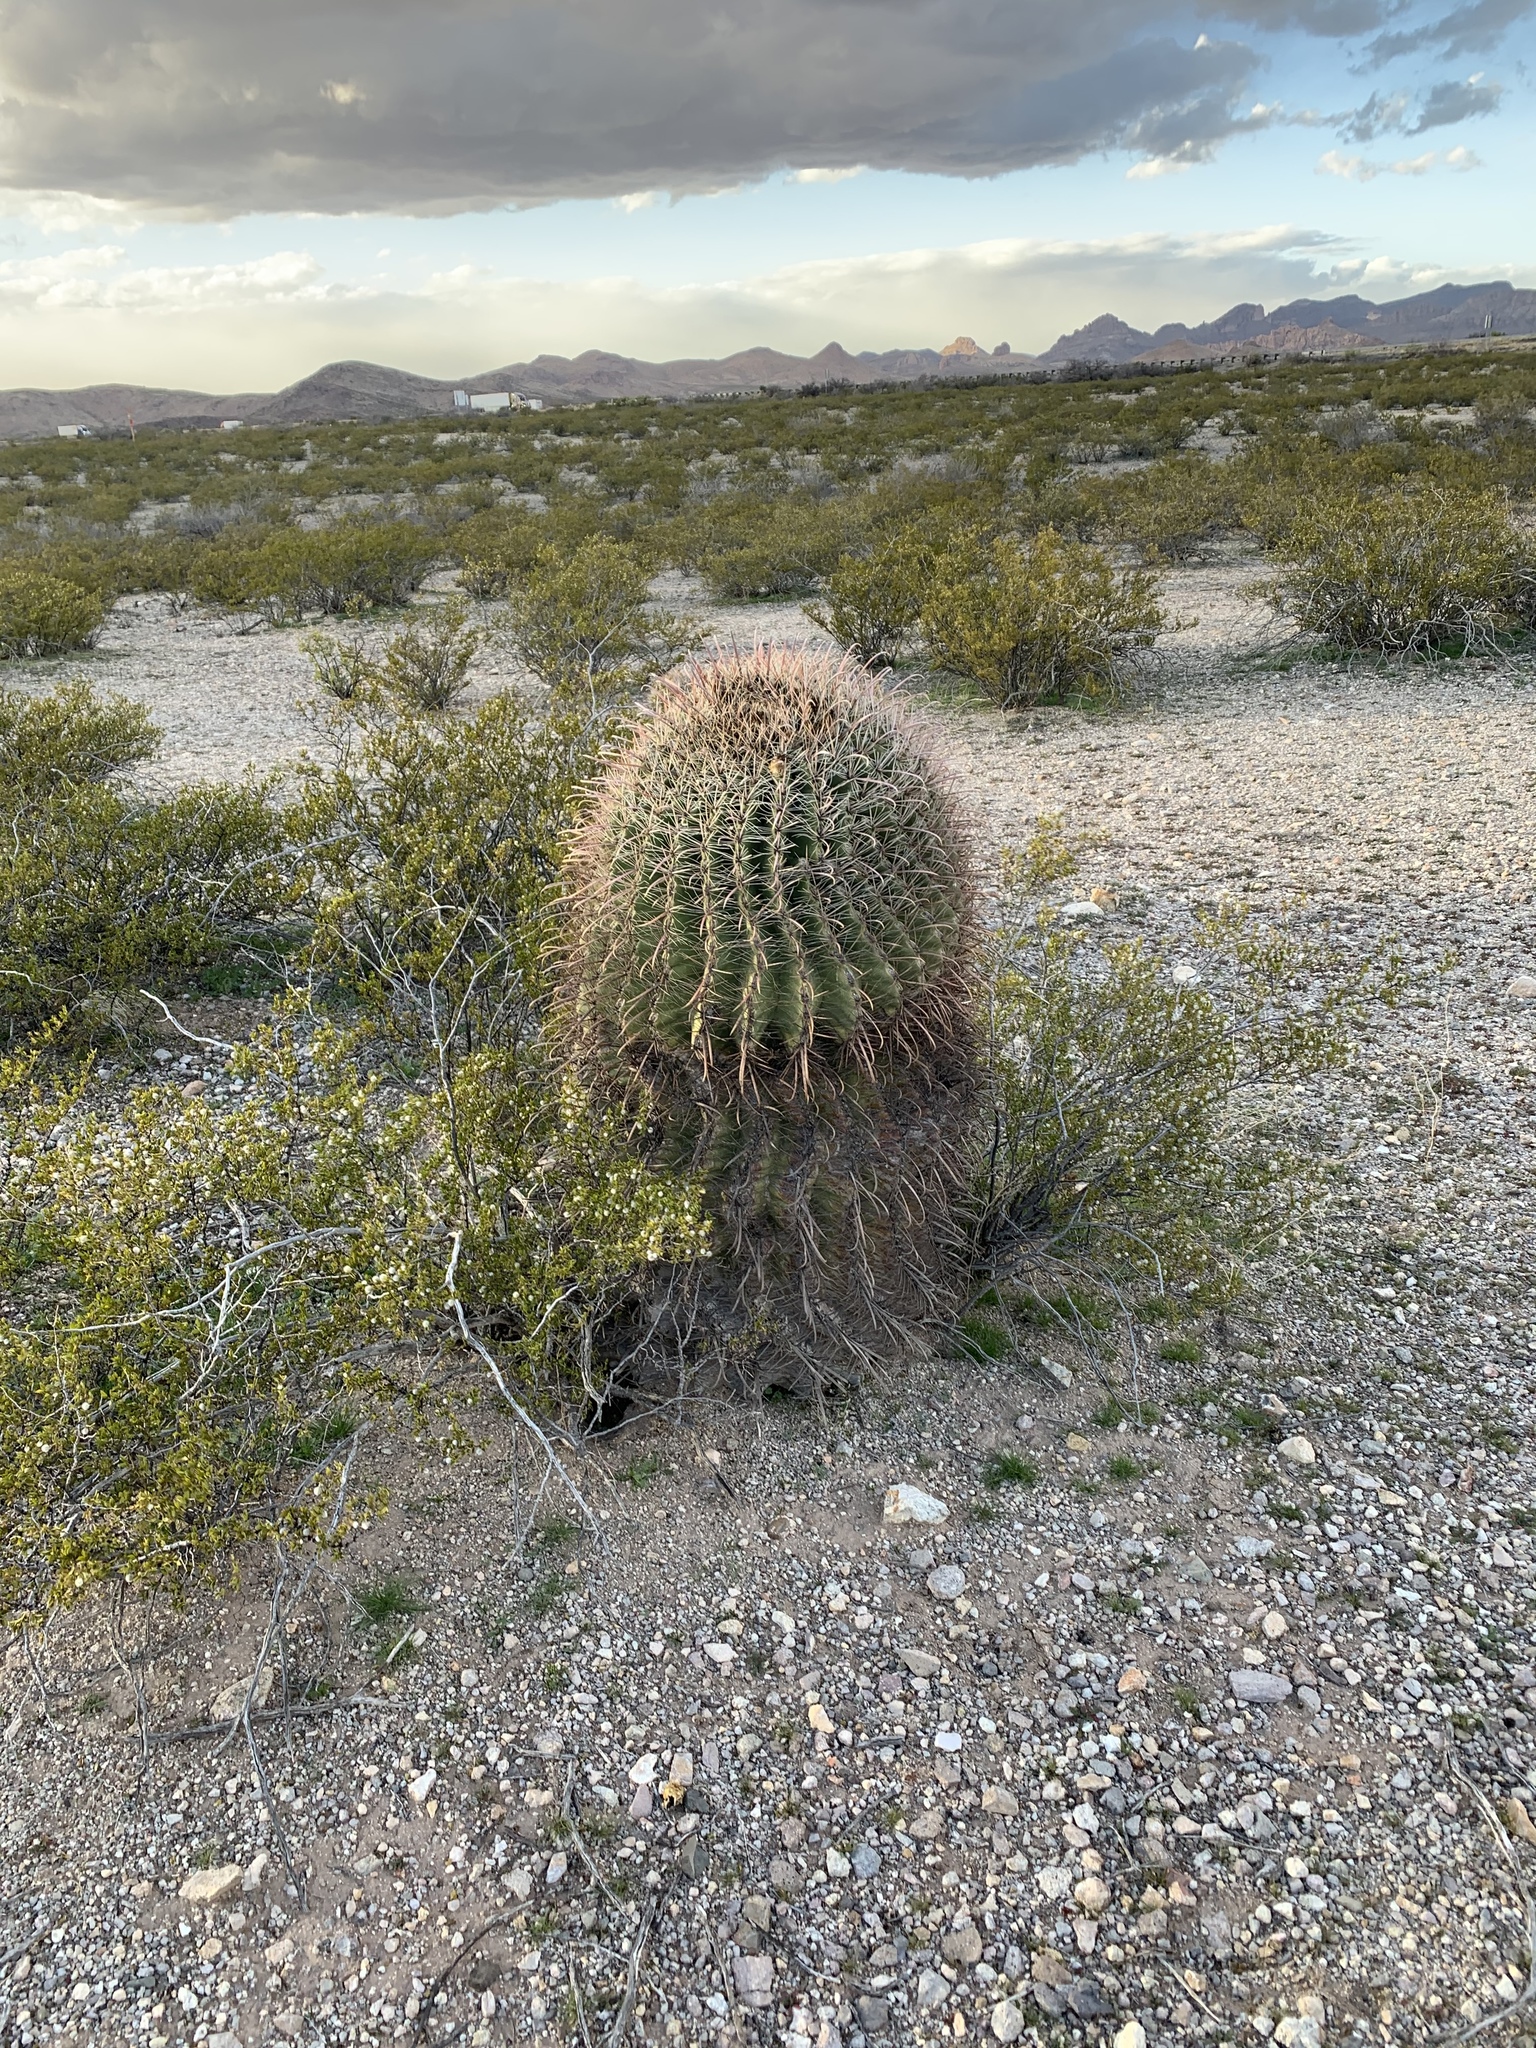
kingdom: Plantae
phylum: Tracheophyta
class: Magnoliopsida
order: Caryophyllales
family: Cactaceae
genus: Ferocactus
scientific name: Ferocactus wislizeni
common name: Candy barrel cactus
